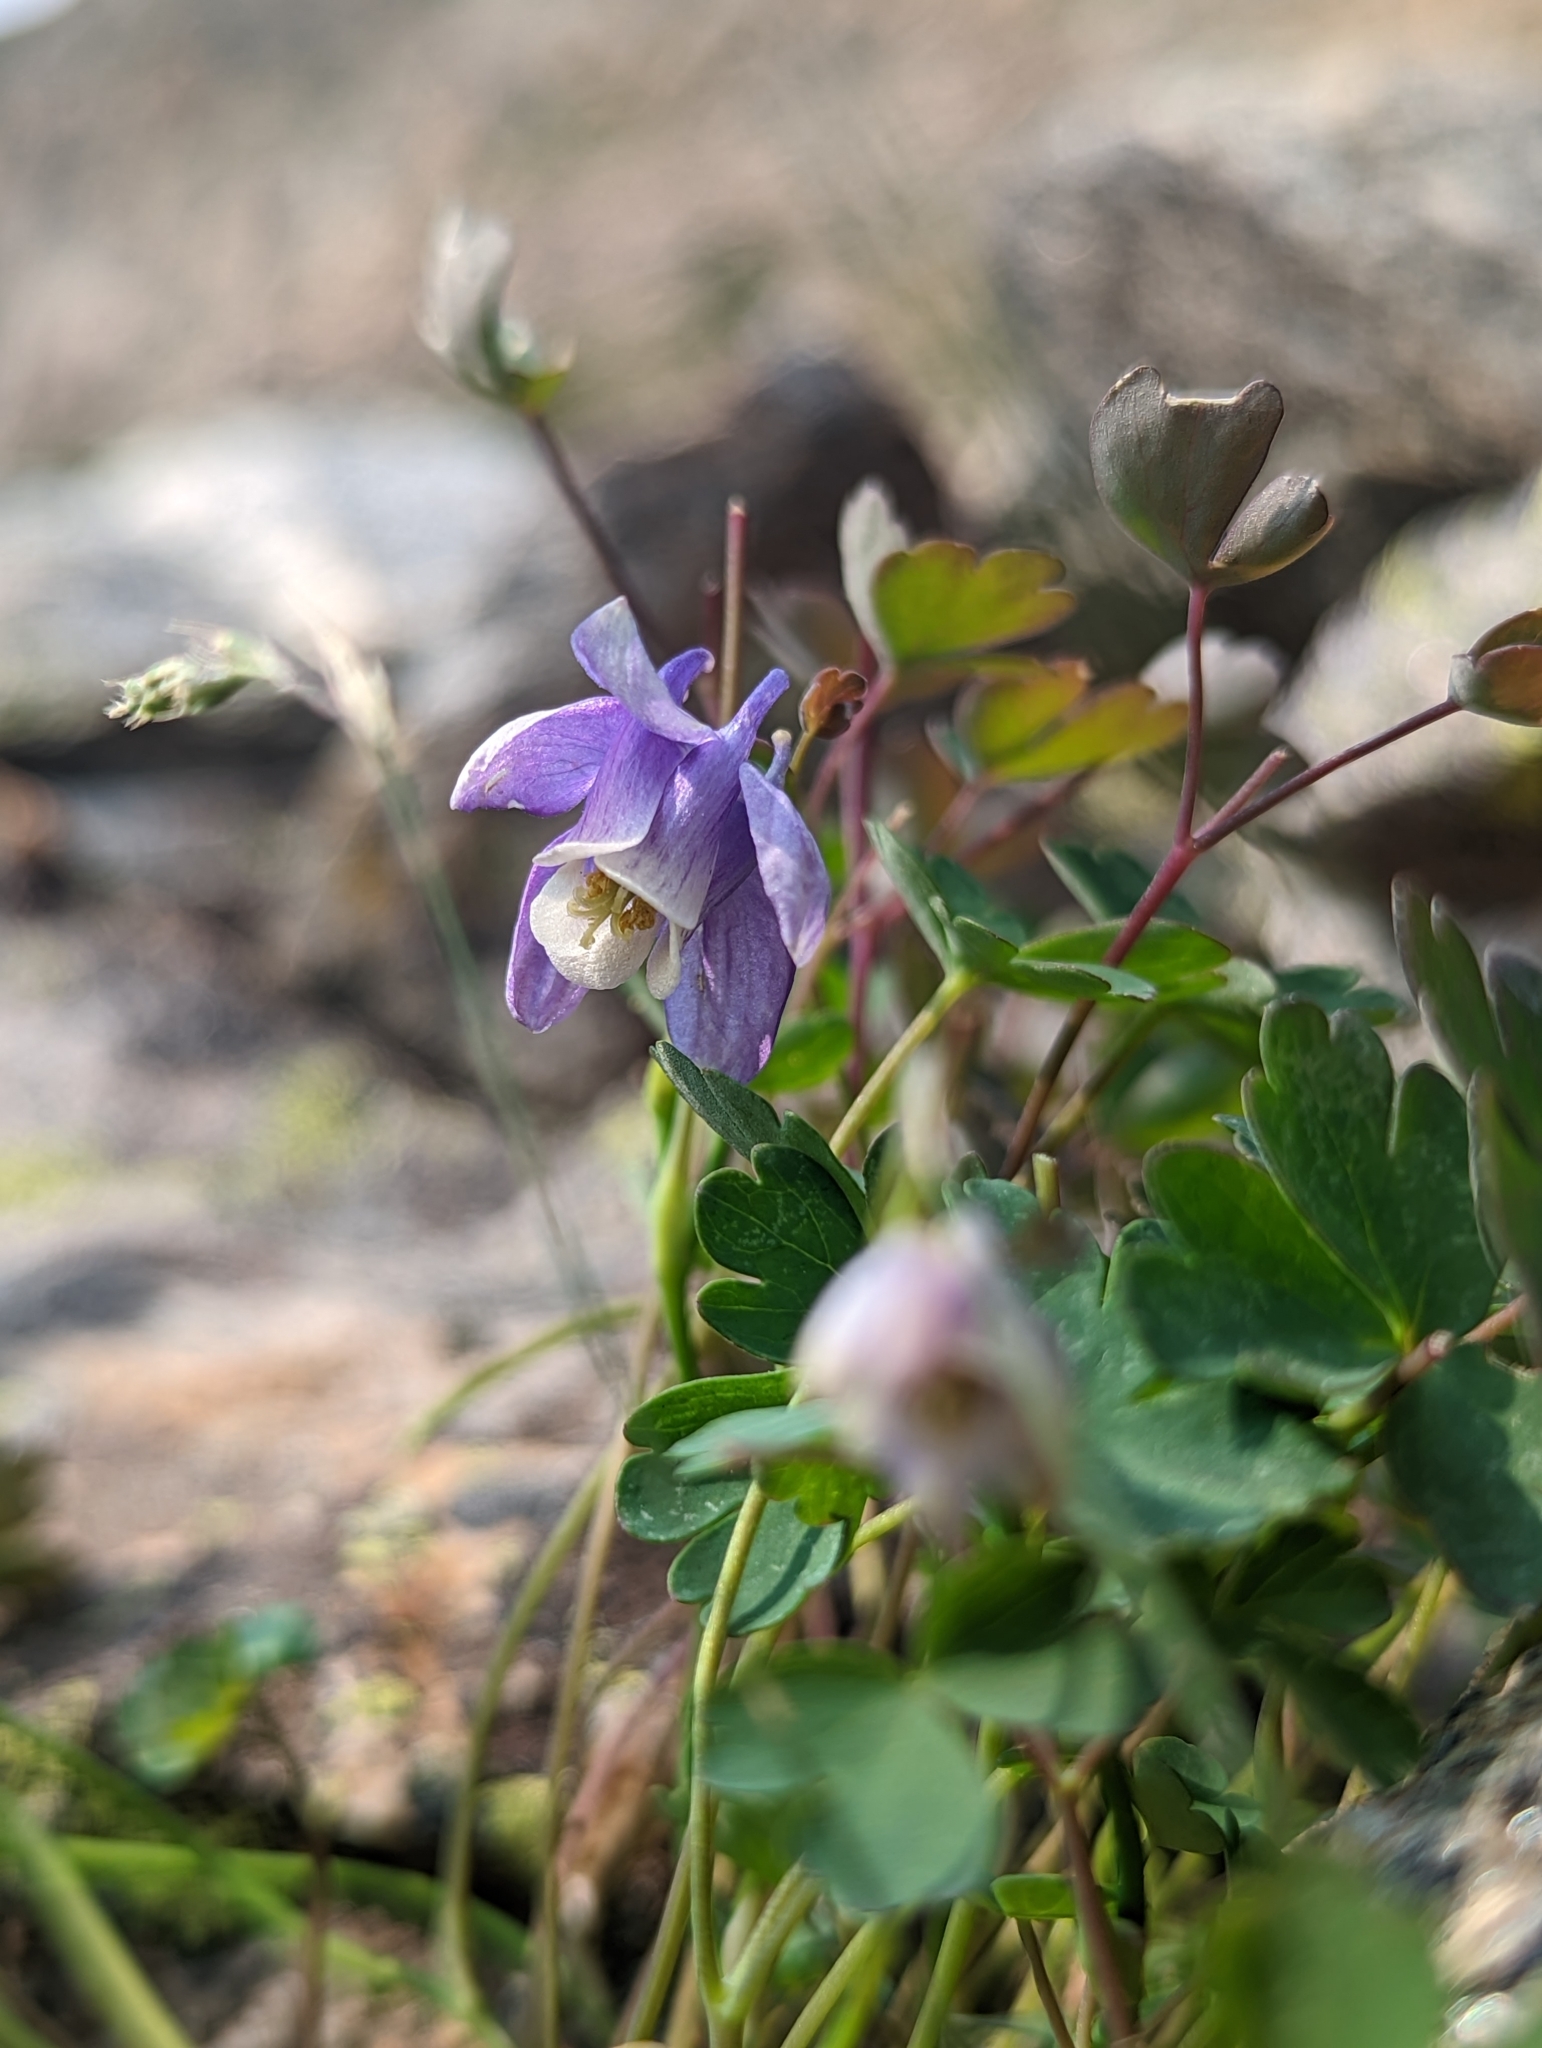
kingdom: Plantae
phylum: Tracheophyta
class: Magnoliopsida
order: Ranunculales
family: Ranunculaceae
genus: Aquilegia
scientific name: Aquilegia saximontana
